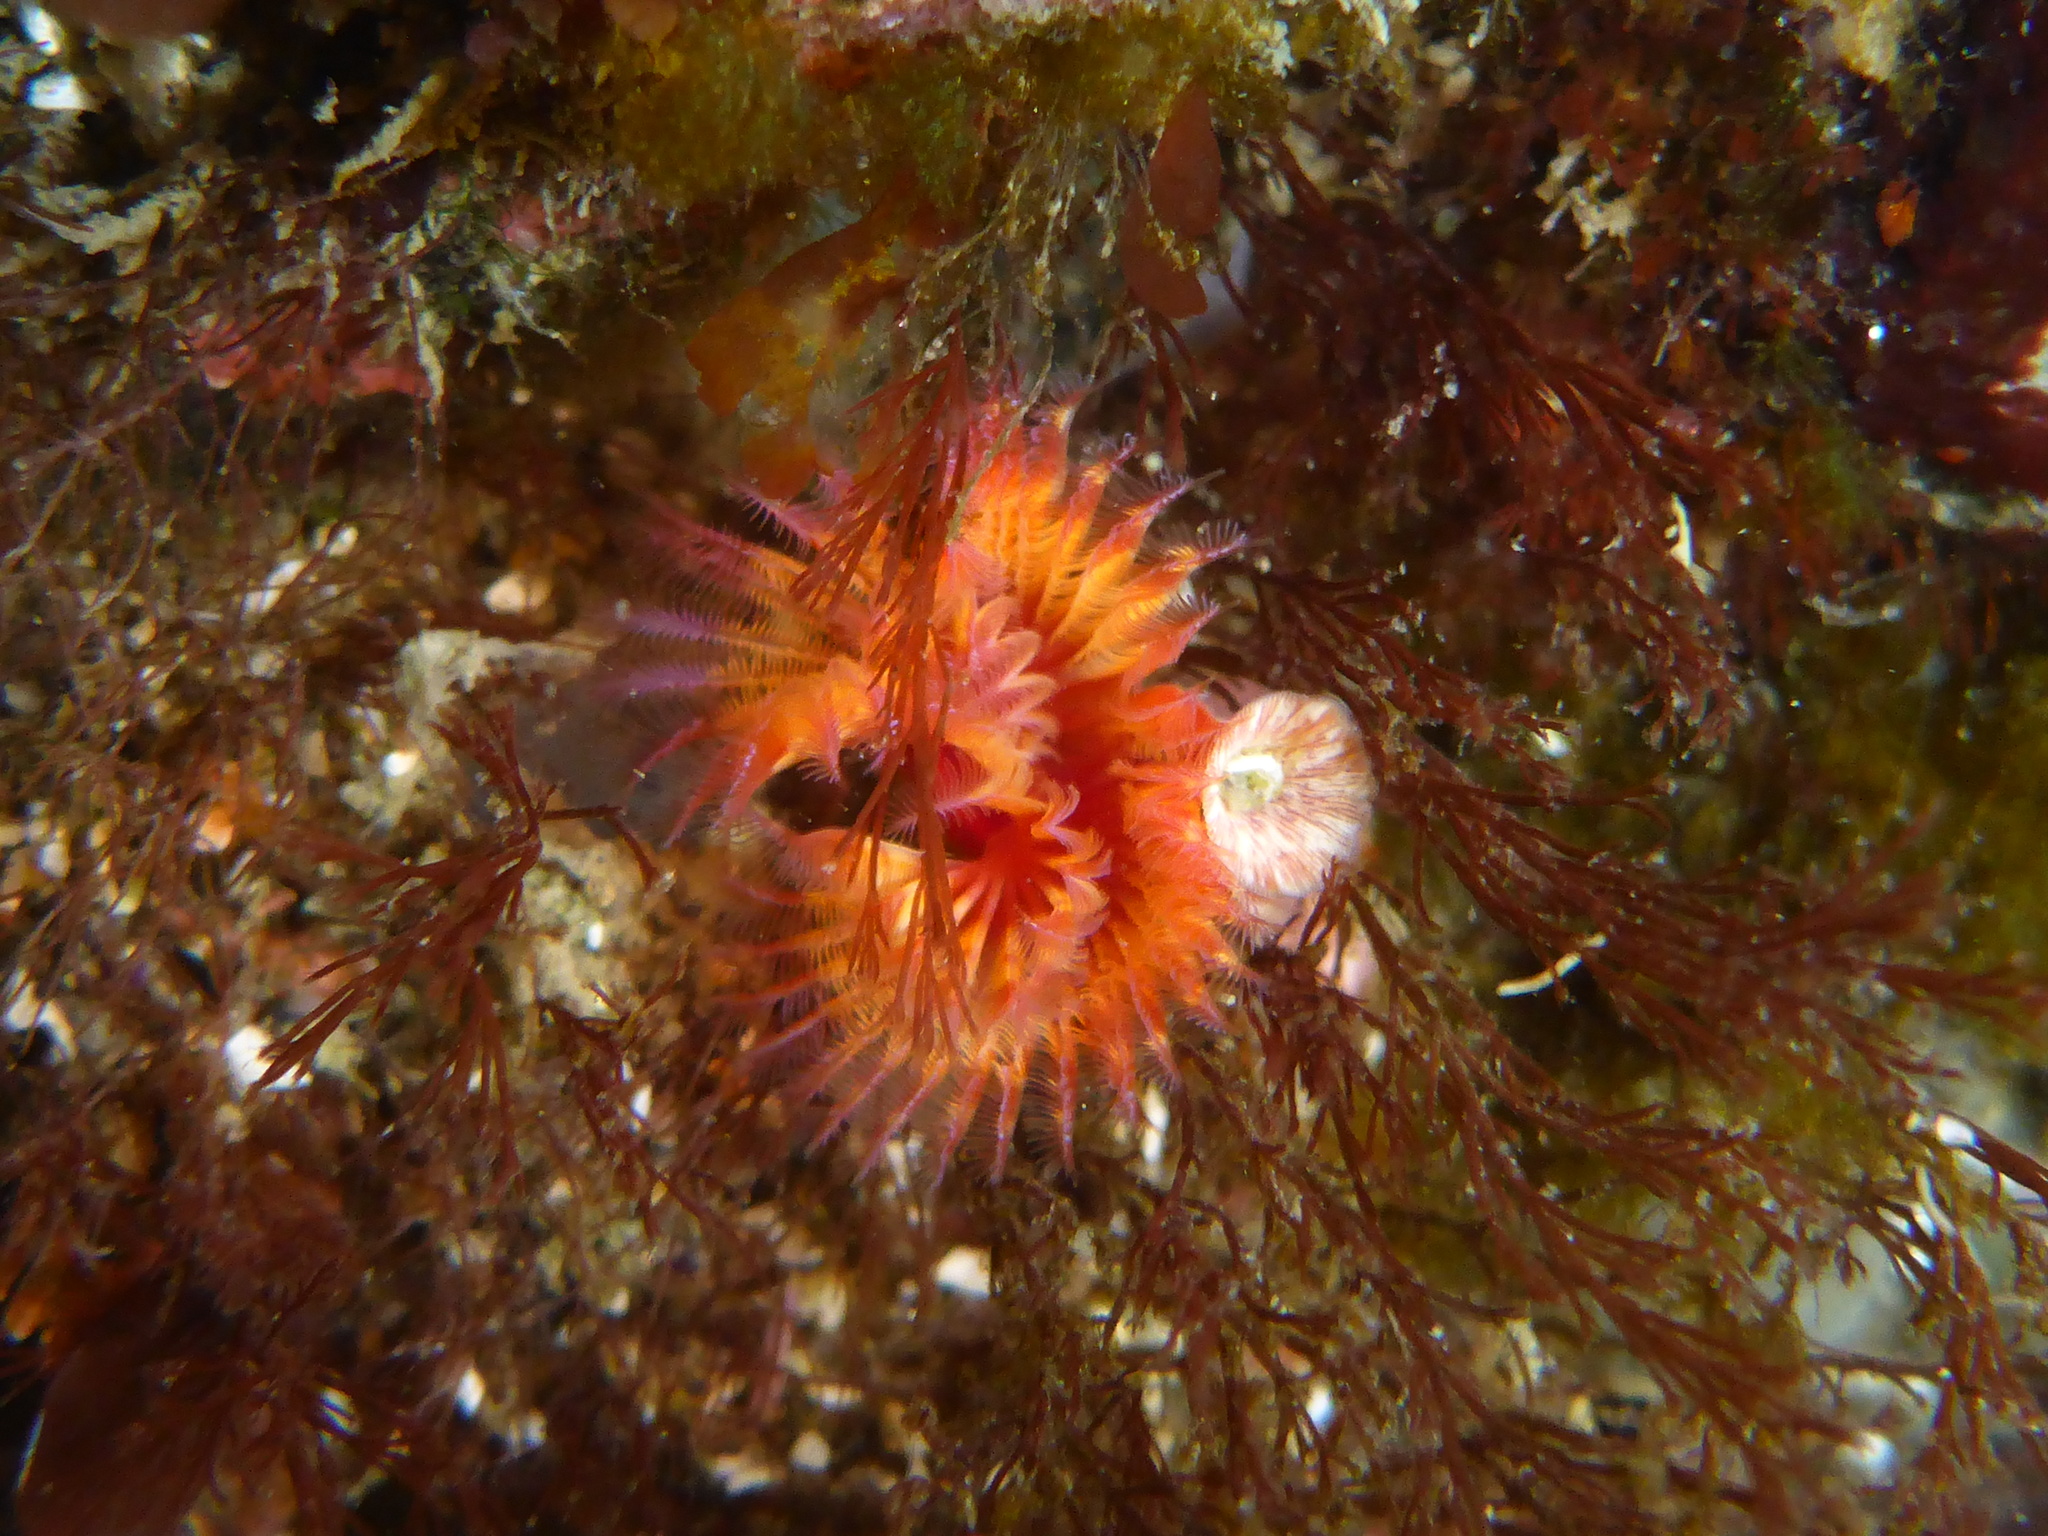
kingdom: Animalia
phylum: Annelida
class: Polychaeta
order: Sabellida
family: Serpulidae
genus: Serpula
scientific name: Serpula columbiana
